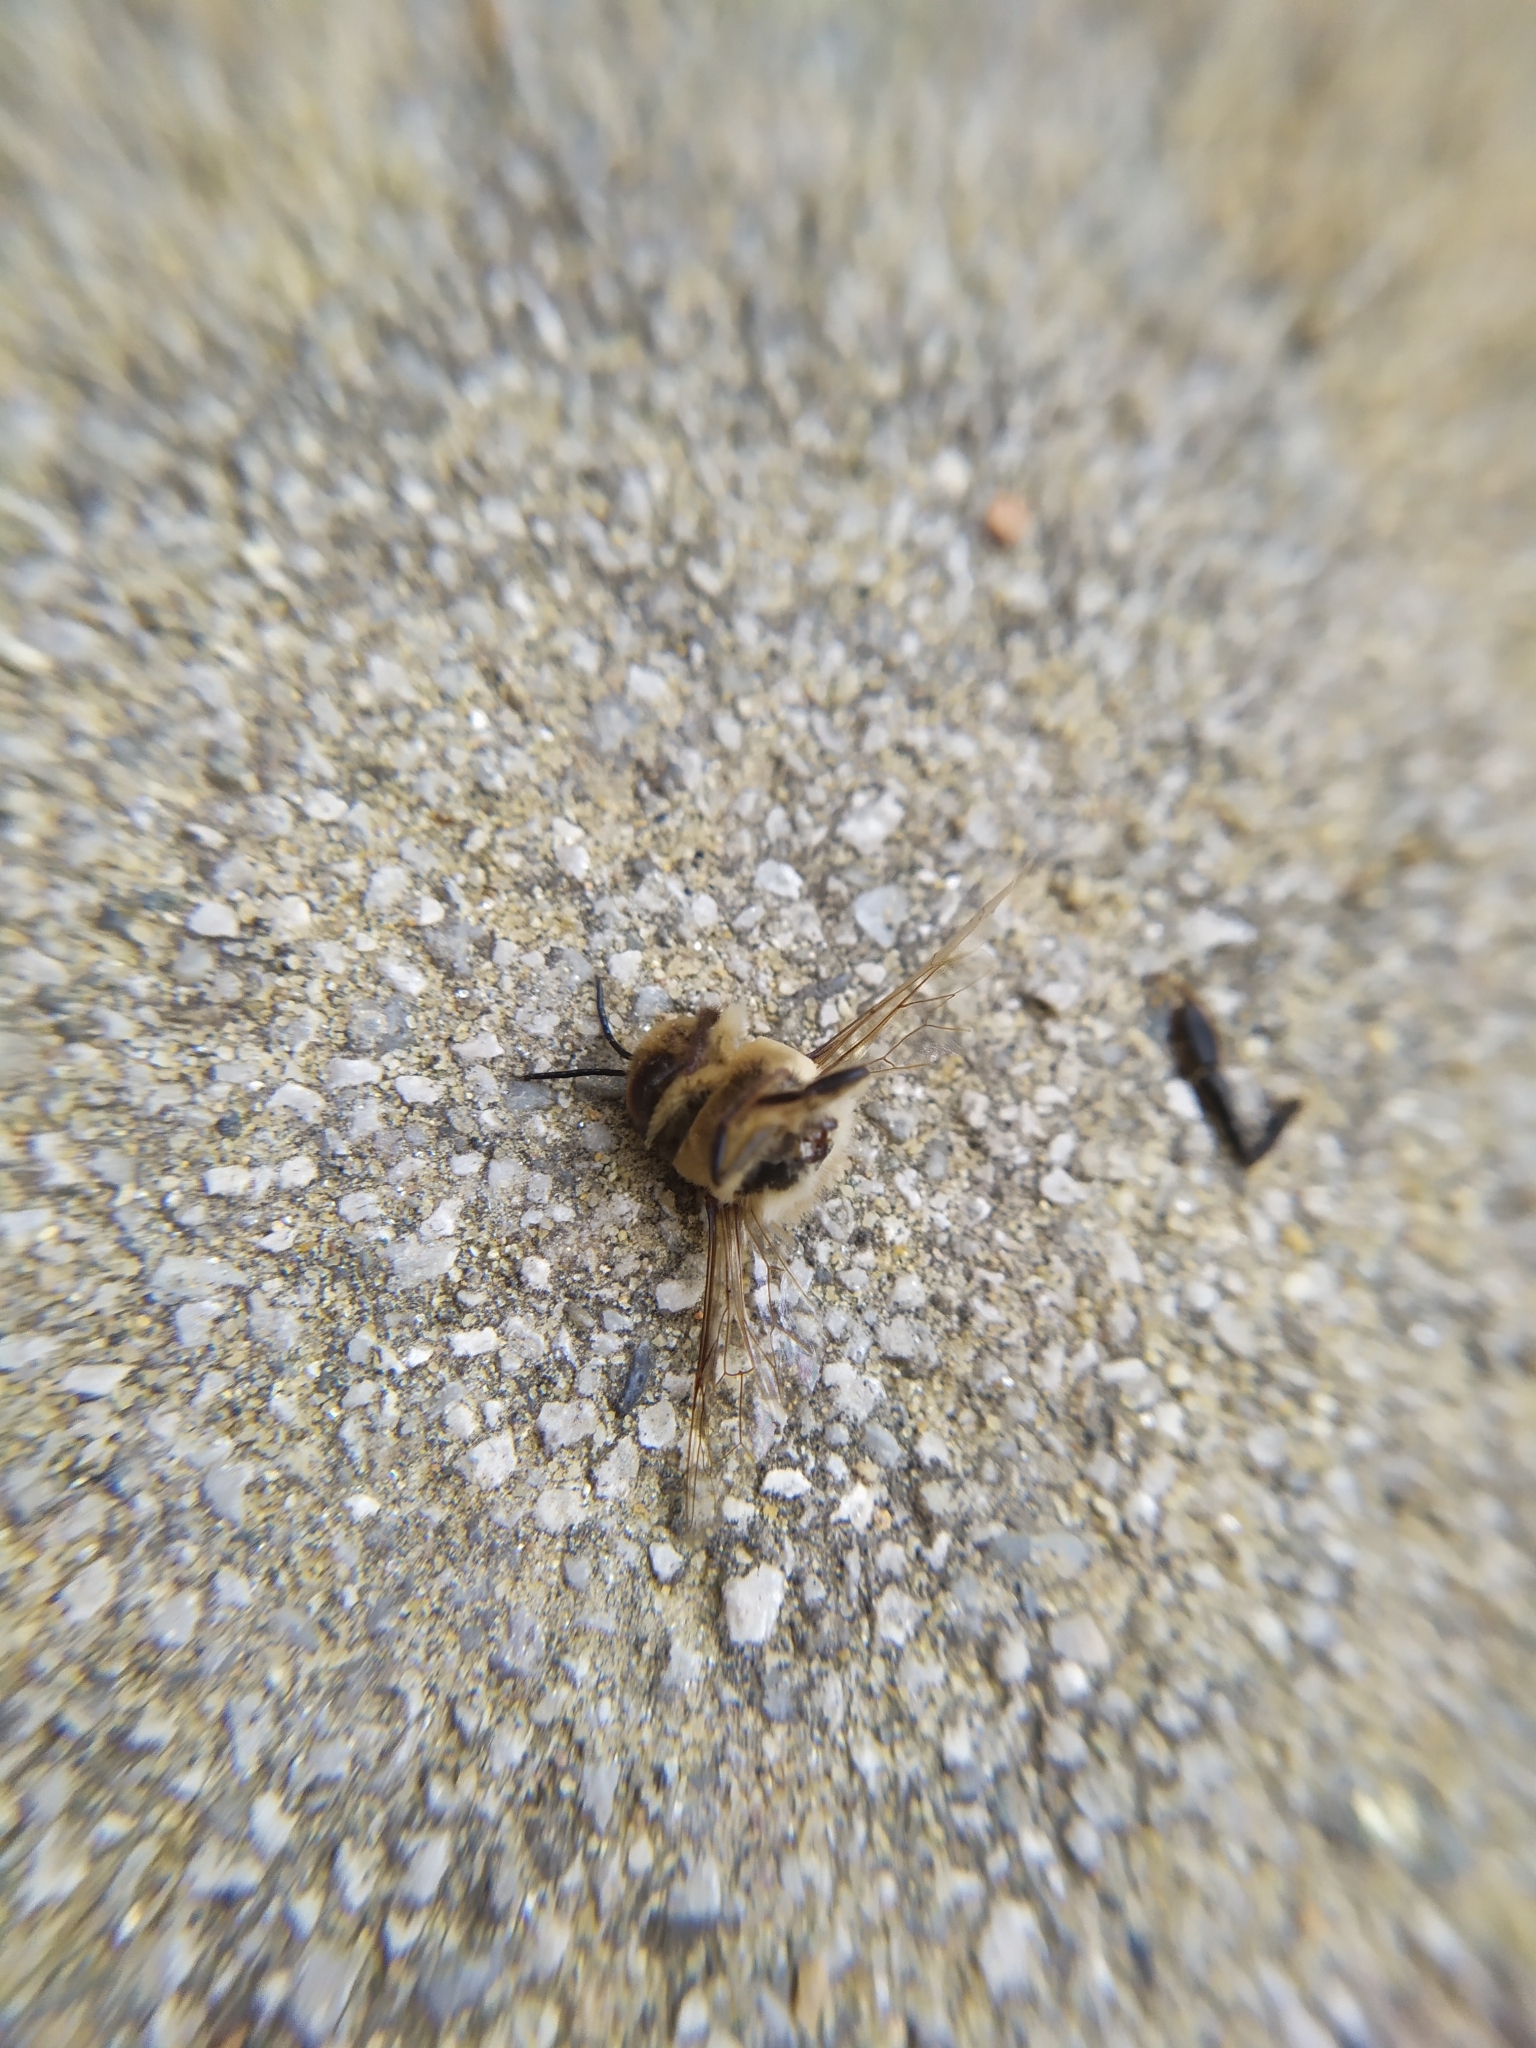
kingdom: Animalia
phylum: Arthropoda
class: Insecta
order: Hymenoptera
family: Apidae
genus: Apis
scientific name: Apis mellifera
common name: Honey bee
